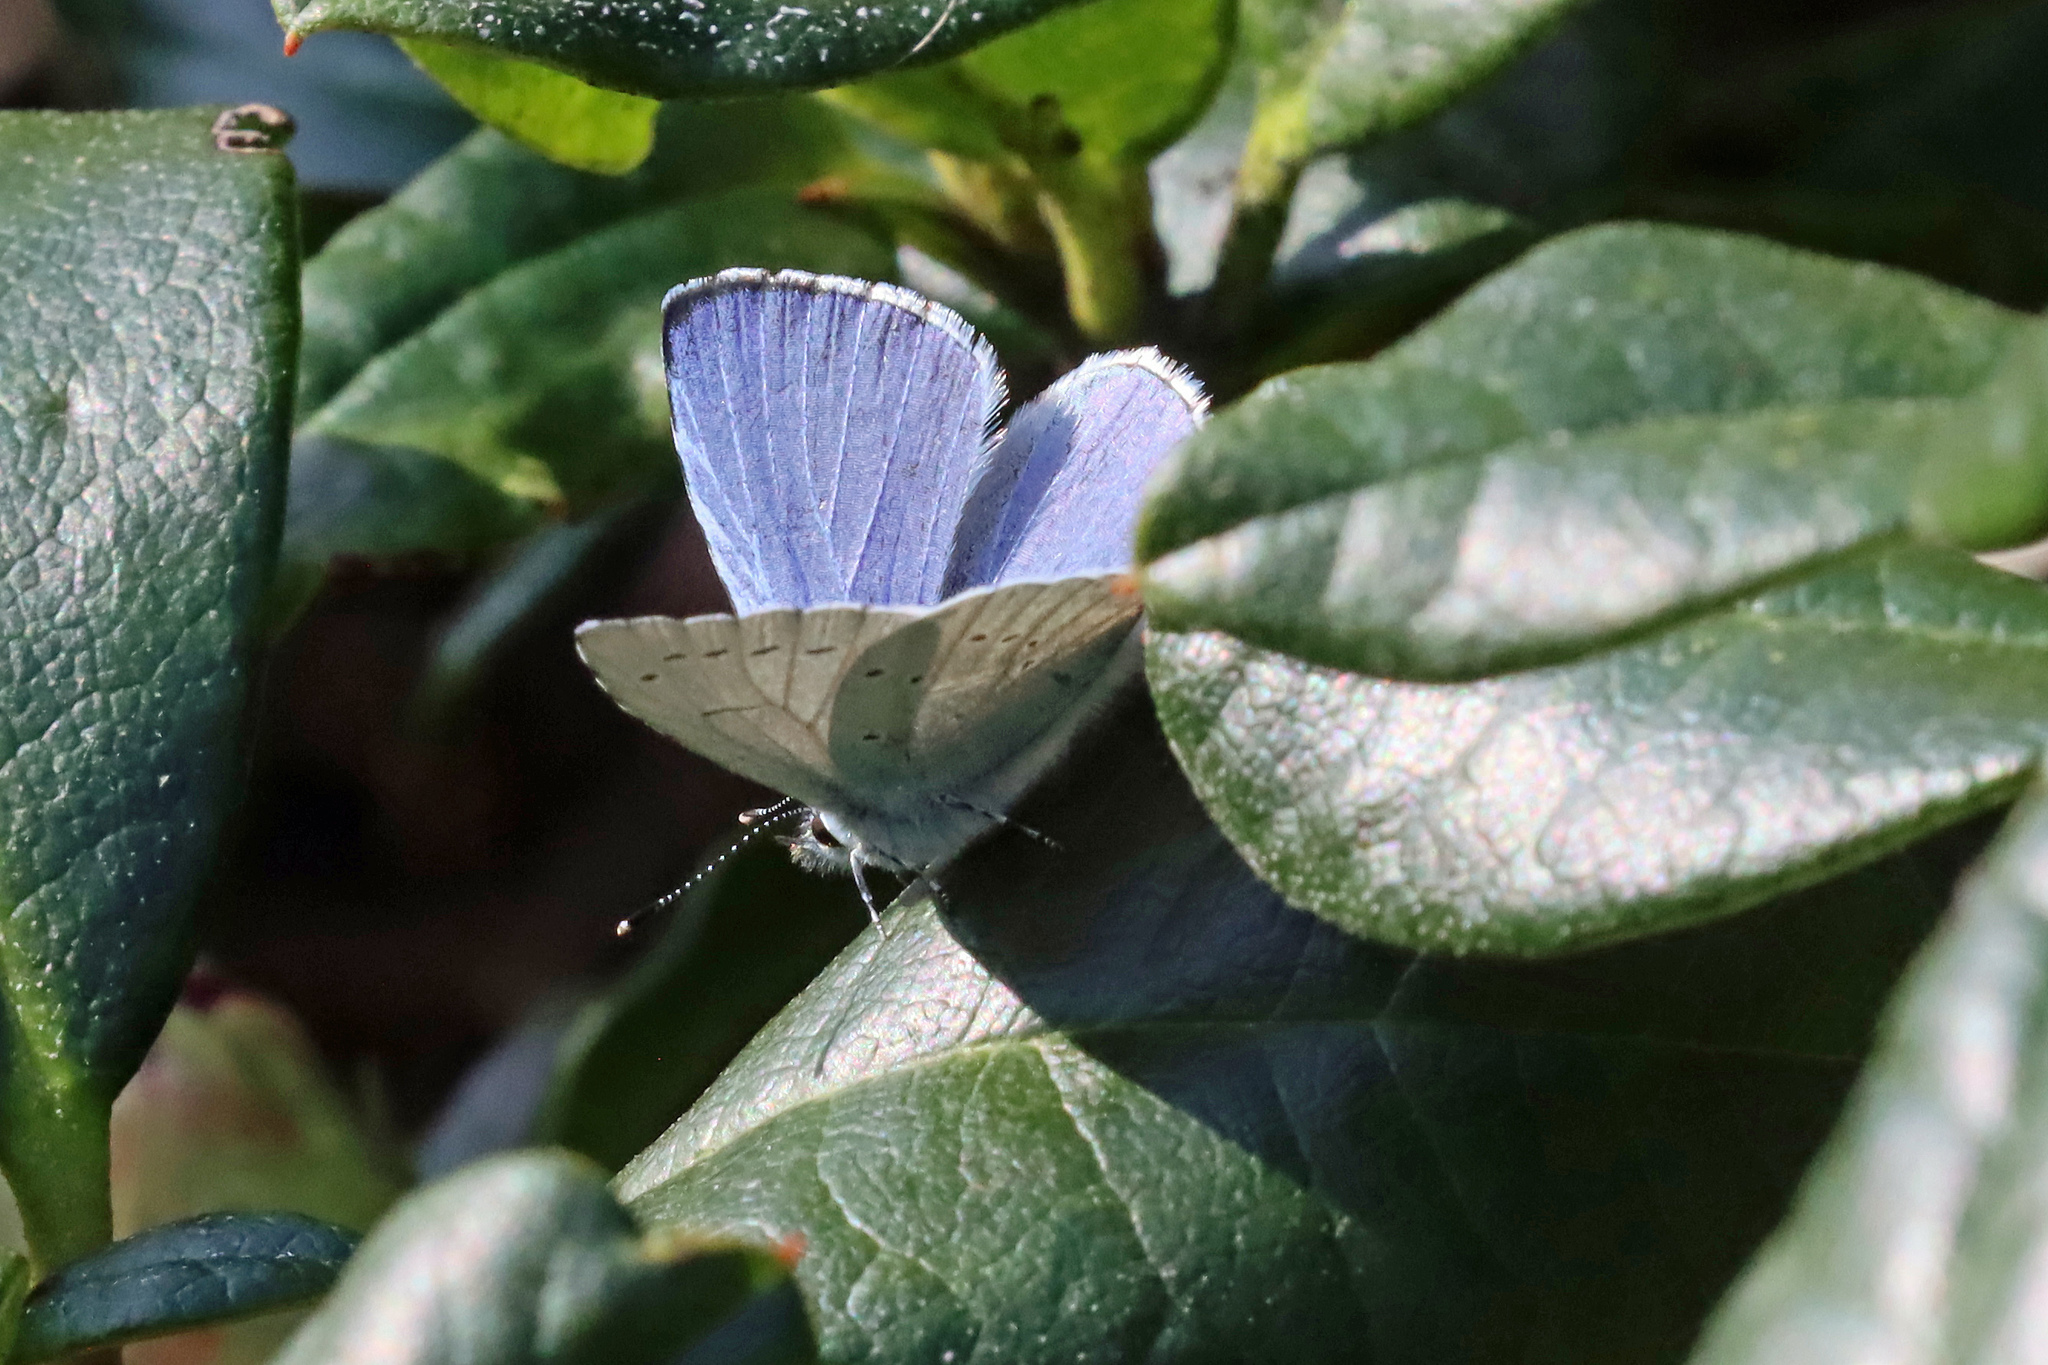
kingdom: Animalia
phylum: Arthropoda
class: Insecta
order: Lepidoptera
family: Lycaenidae
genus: Celastrina
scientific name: Celastrina argiolus
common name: Holly blue
